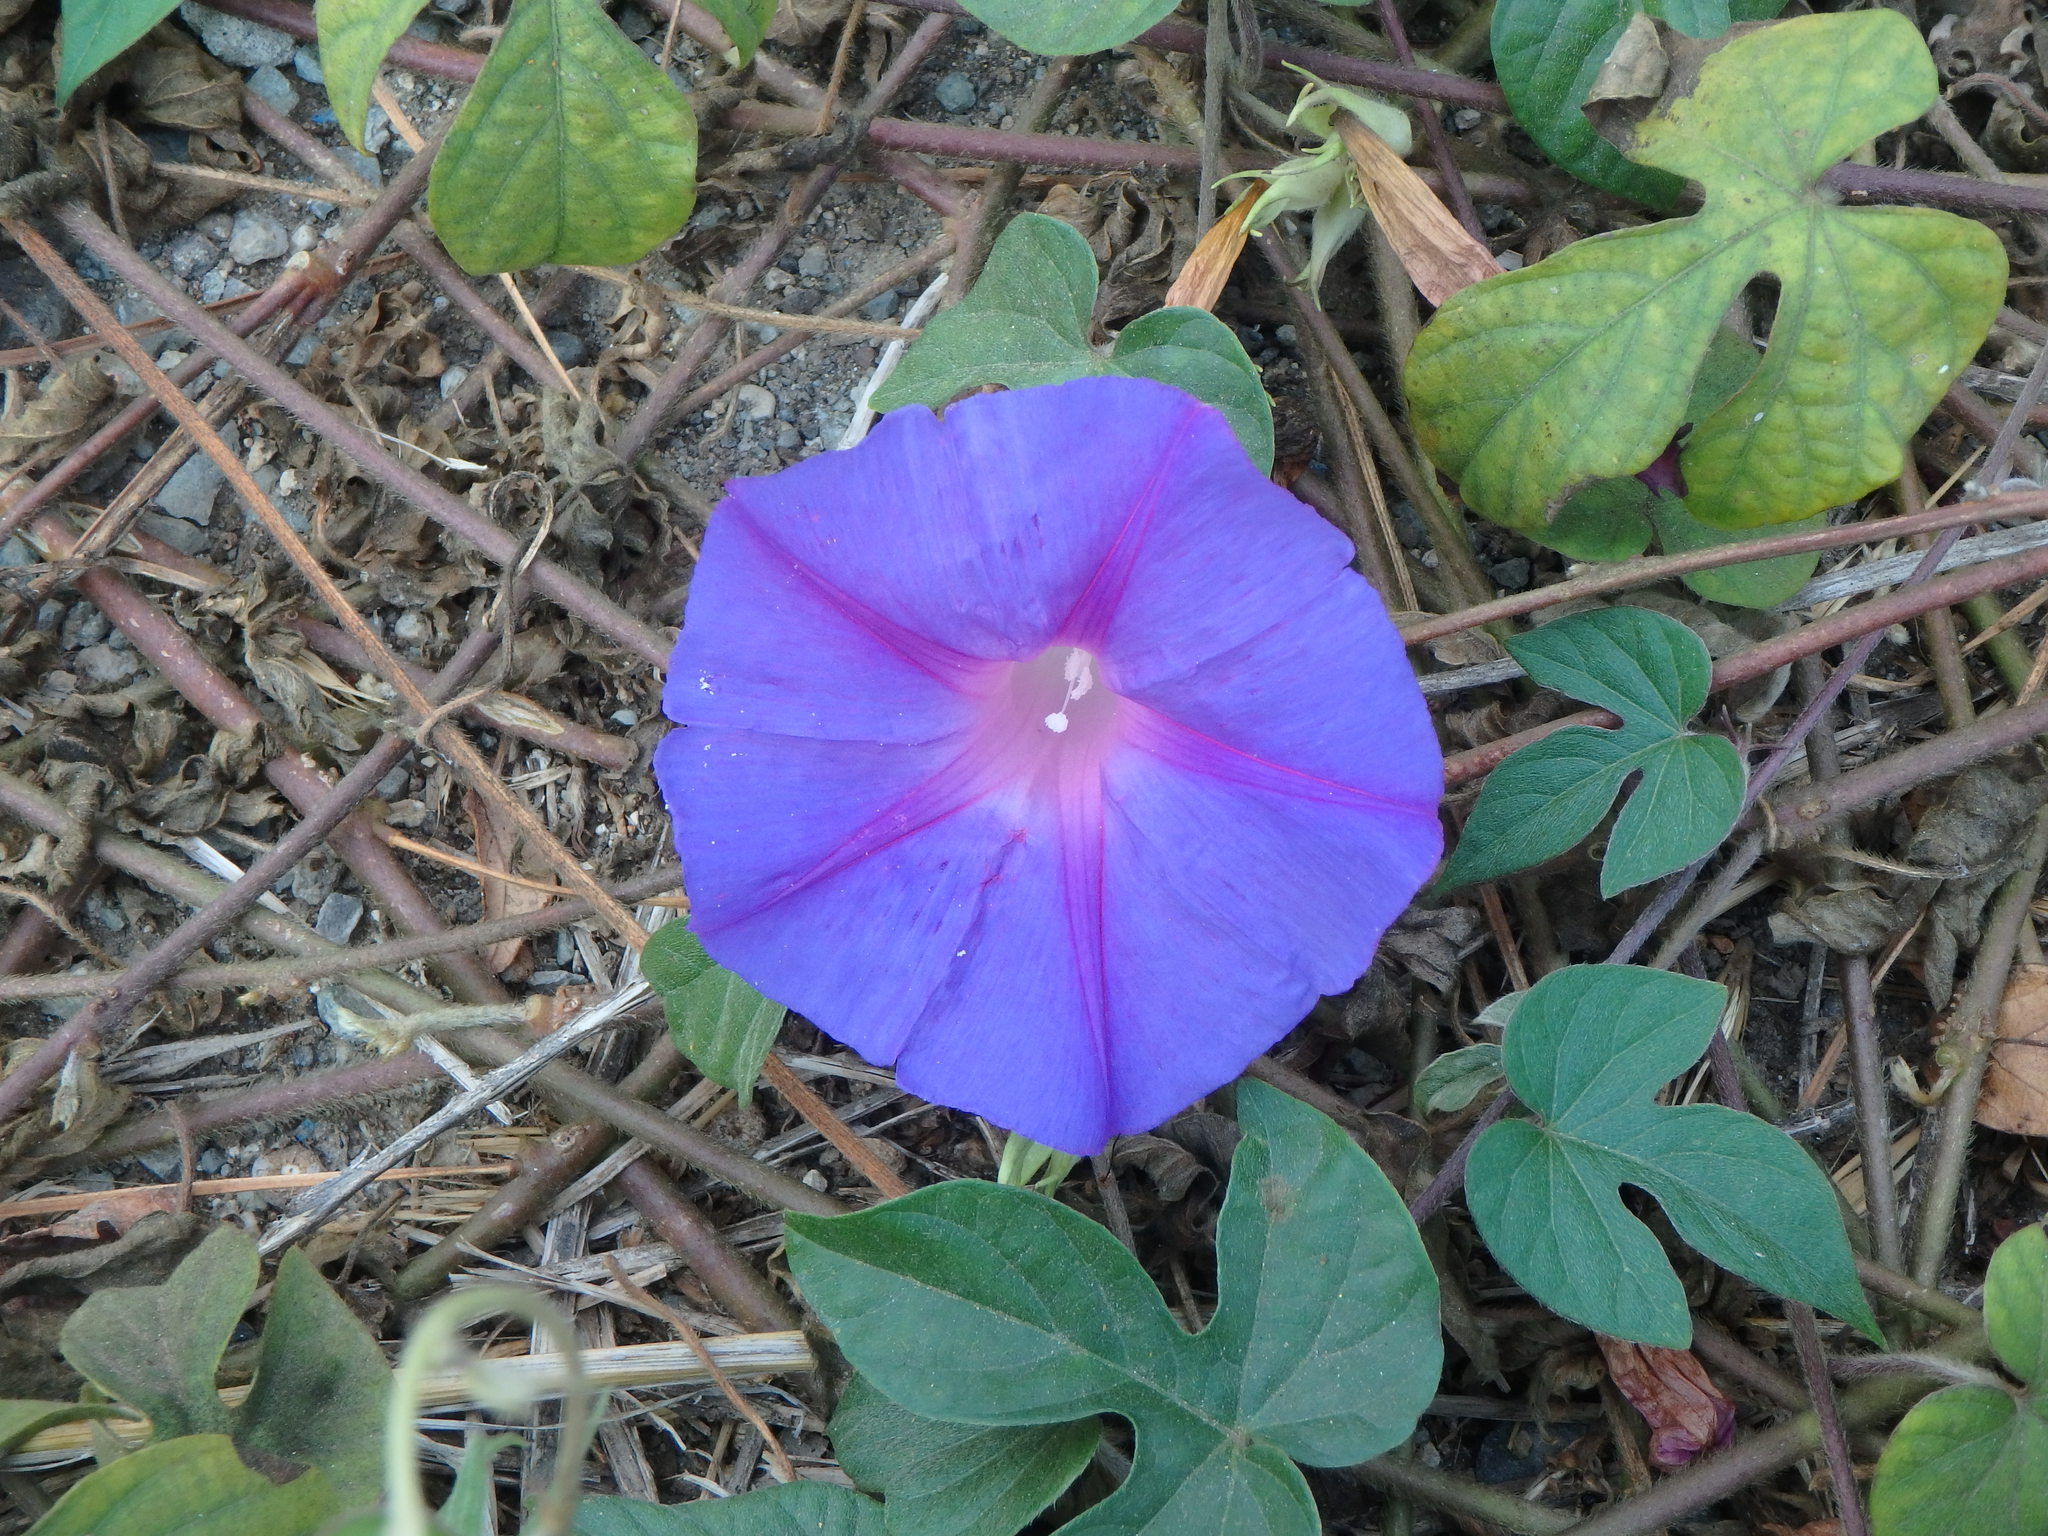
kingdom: Plantae
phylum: Tracheophyta
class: Magnoliopsida
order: Solanales
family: Convolvulaceae
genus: Ipomoea
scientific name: Ipomoea indica
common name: Blue dawnflower
